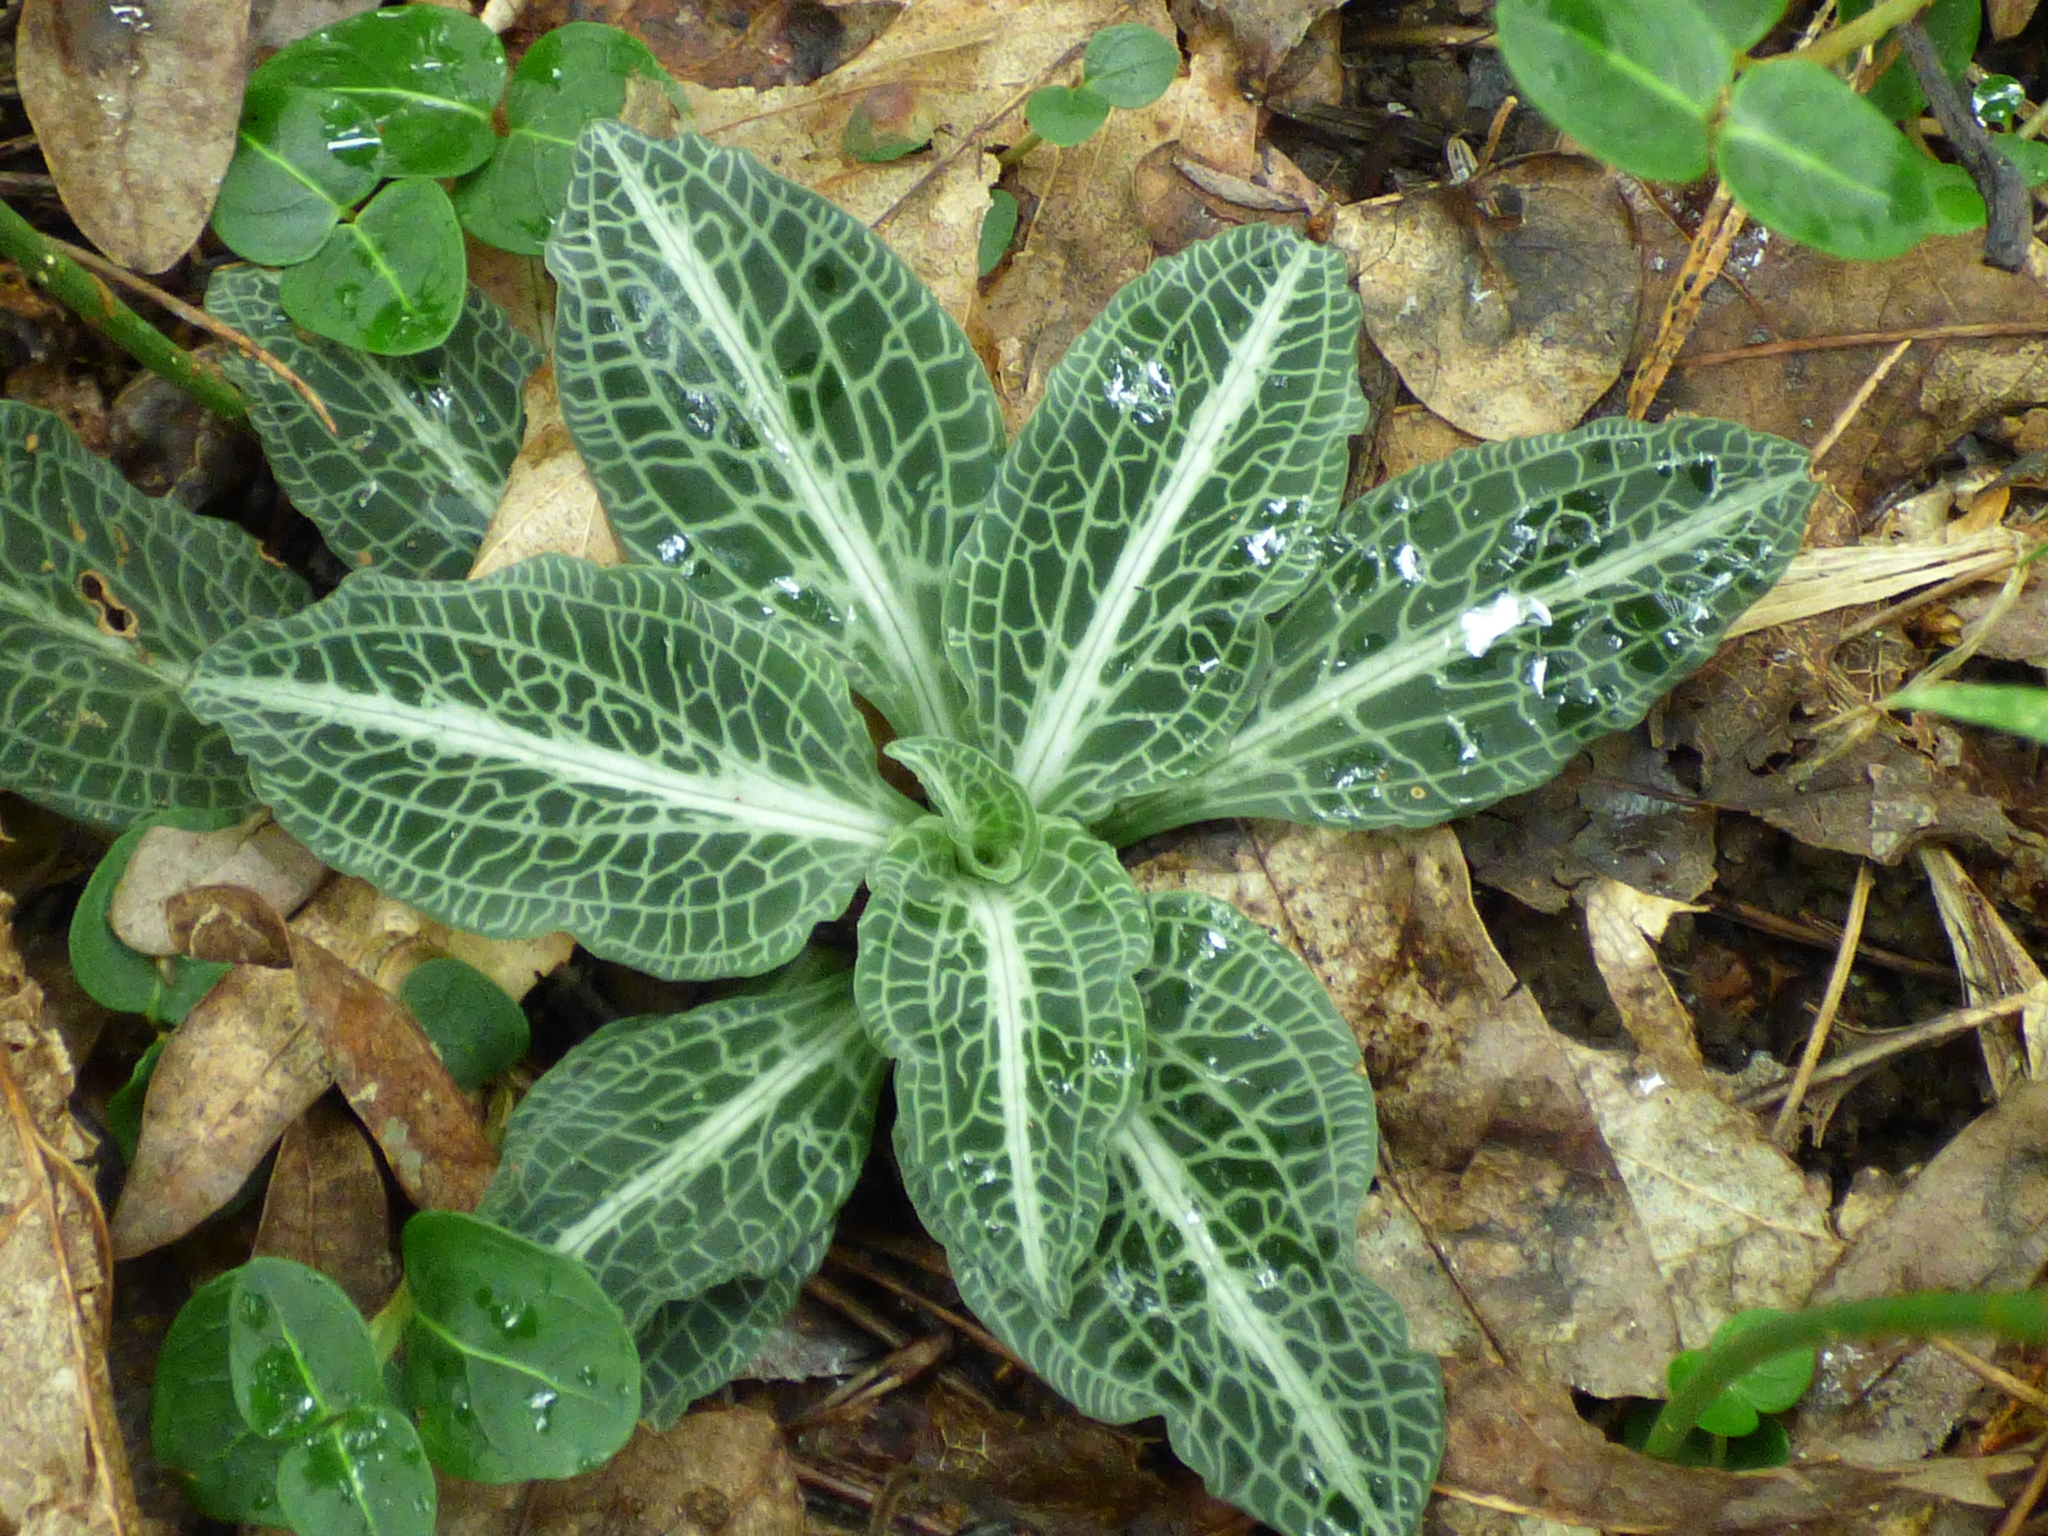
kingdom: Plantae
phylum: Tracheophyta
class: Liliopsida
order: Asparagales
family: Orchidaceae
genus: Goodyera
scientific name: Goodyera pubescens
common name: Downy rattlesnake-plantain
